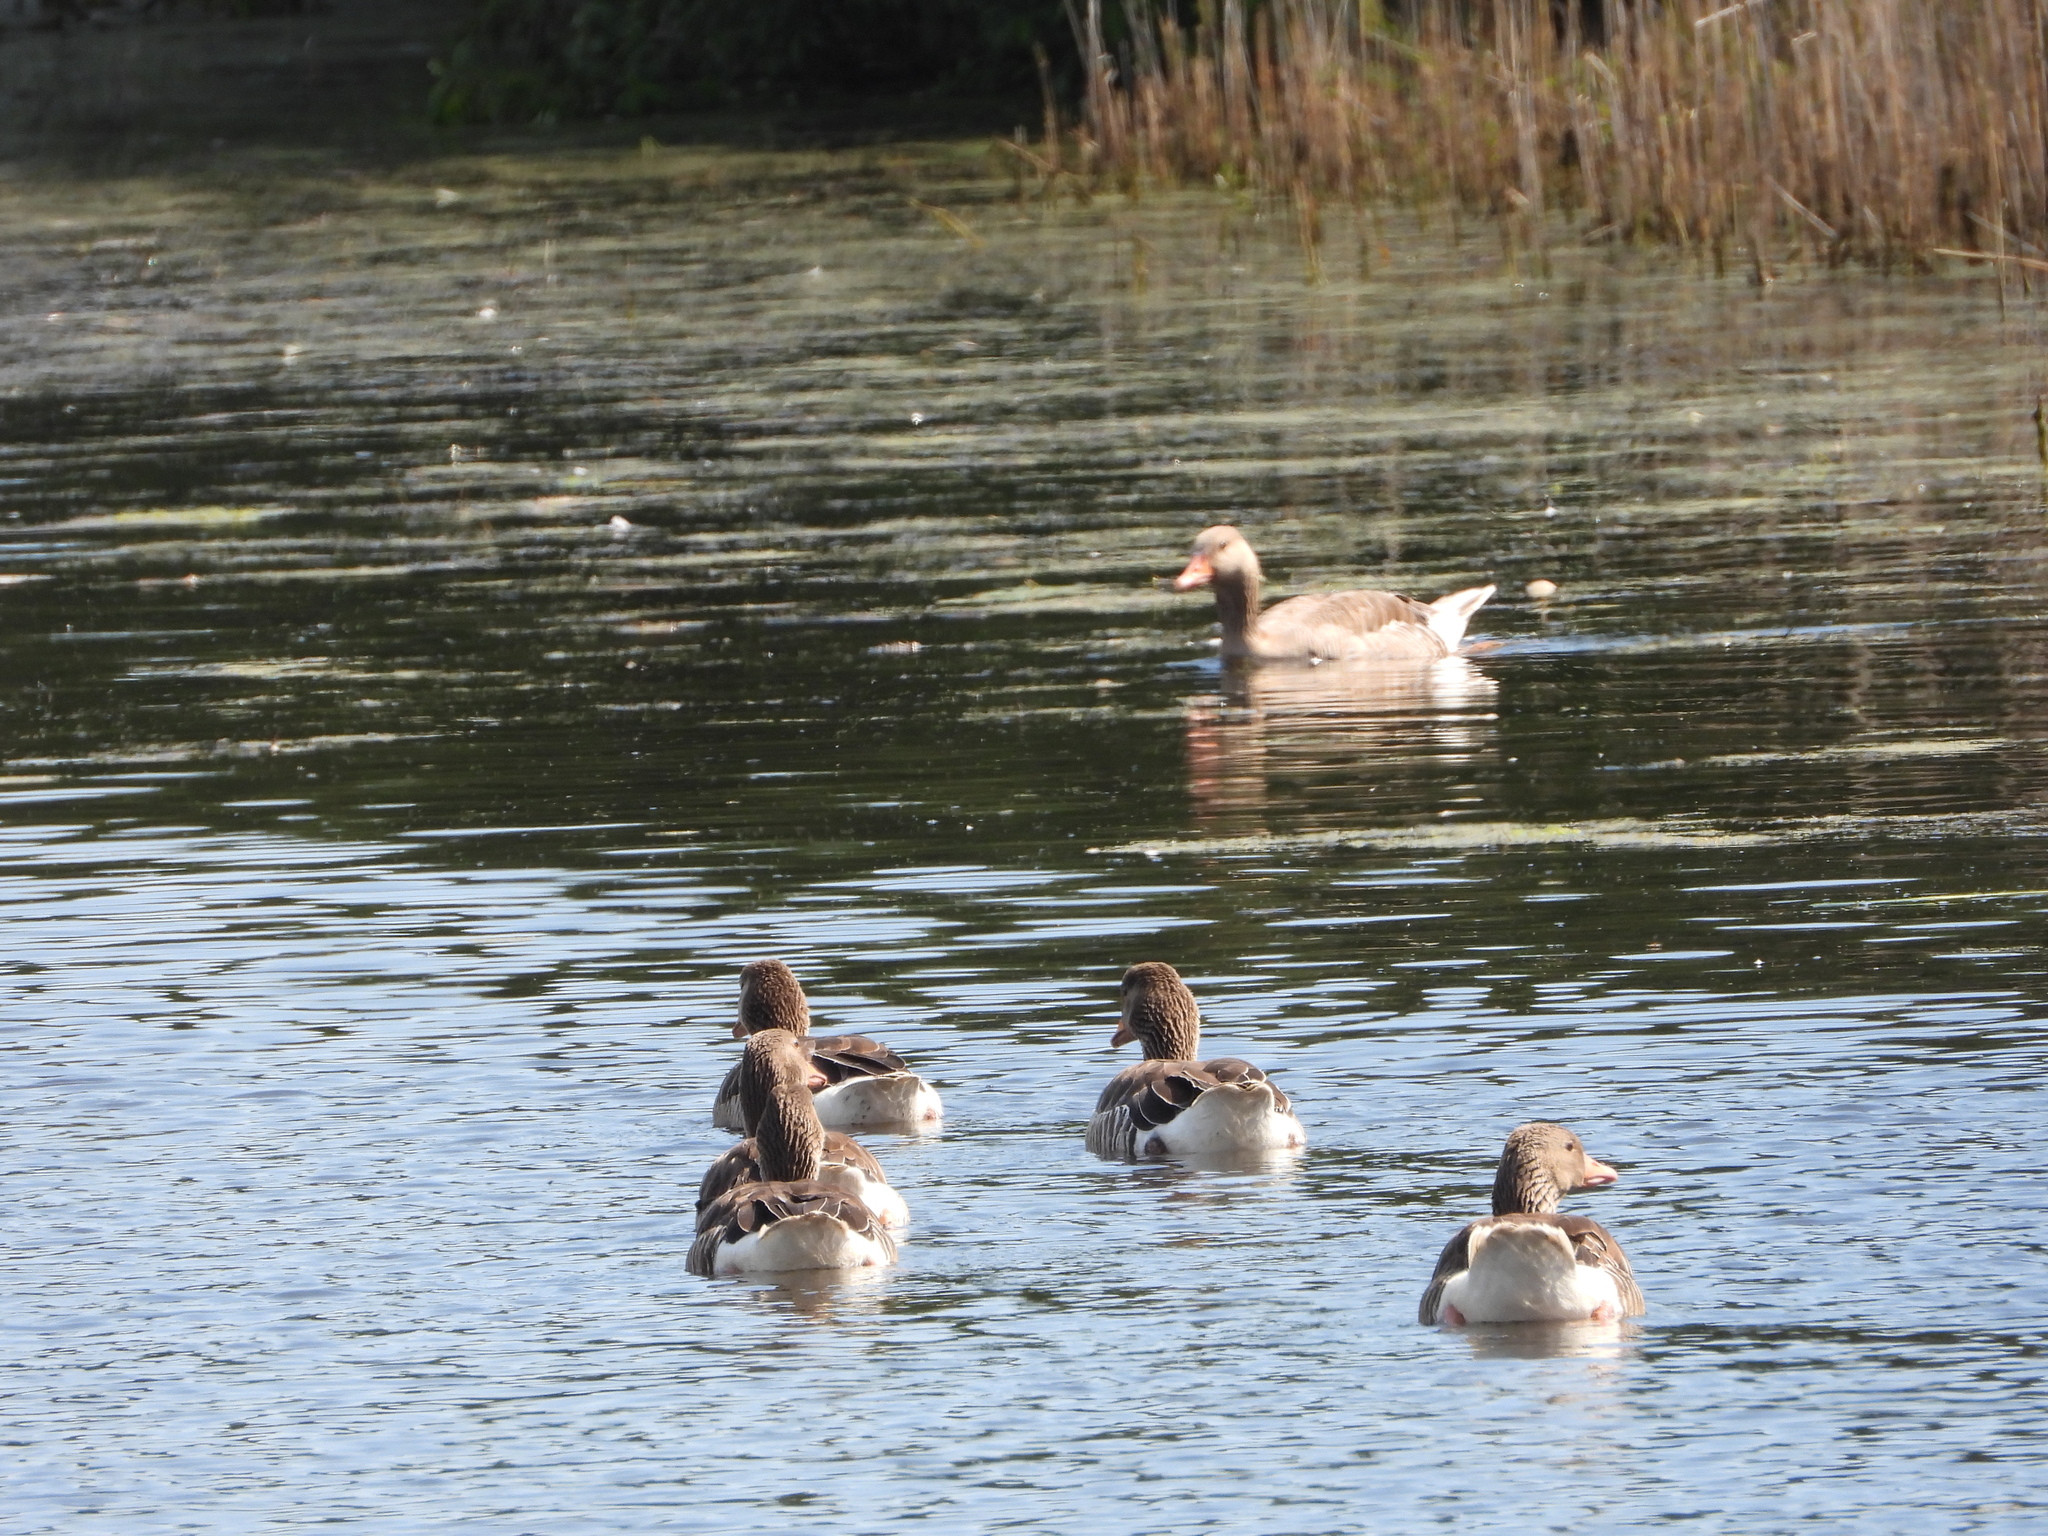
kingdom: Animalia
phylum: Chordata
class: Aves
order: Anseriformes
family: Anatidae
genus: Anser
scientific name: Anser anser
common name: Greylag goose
